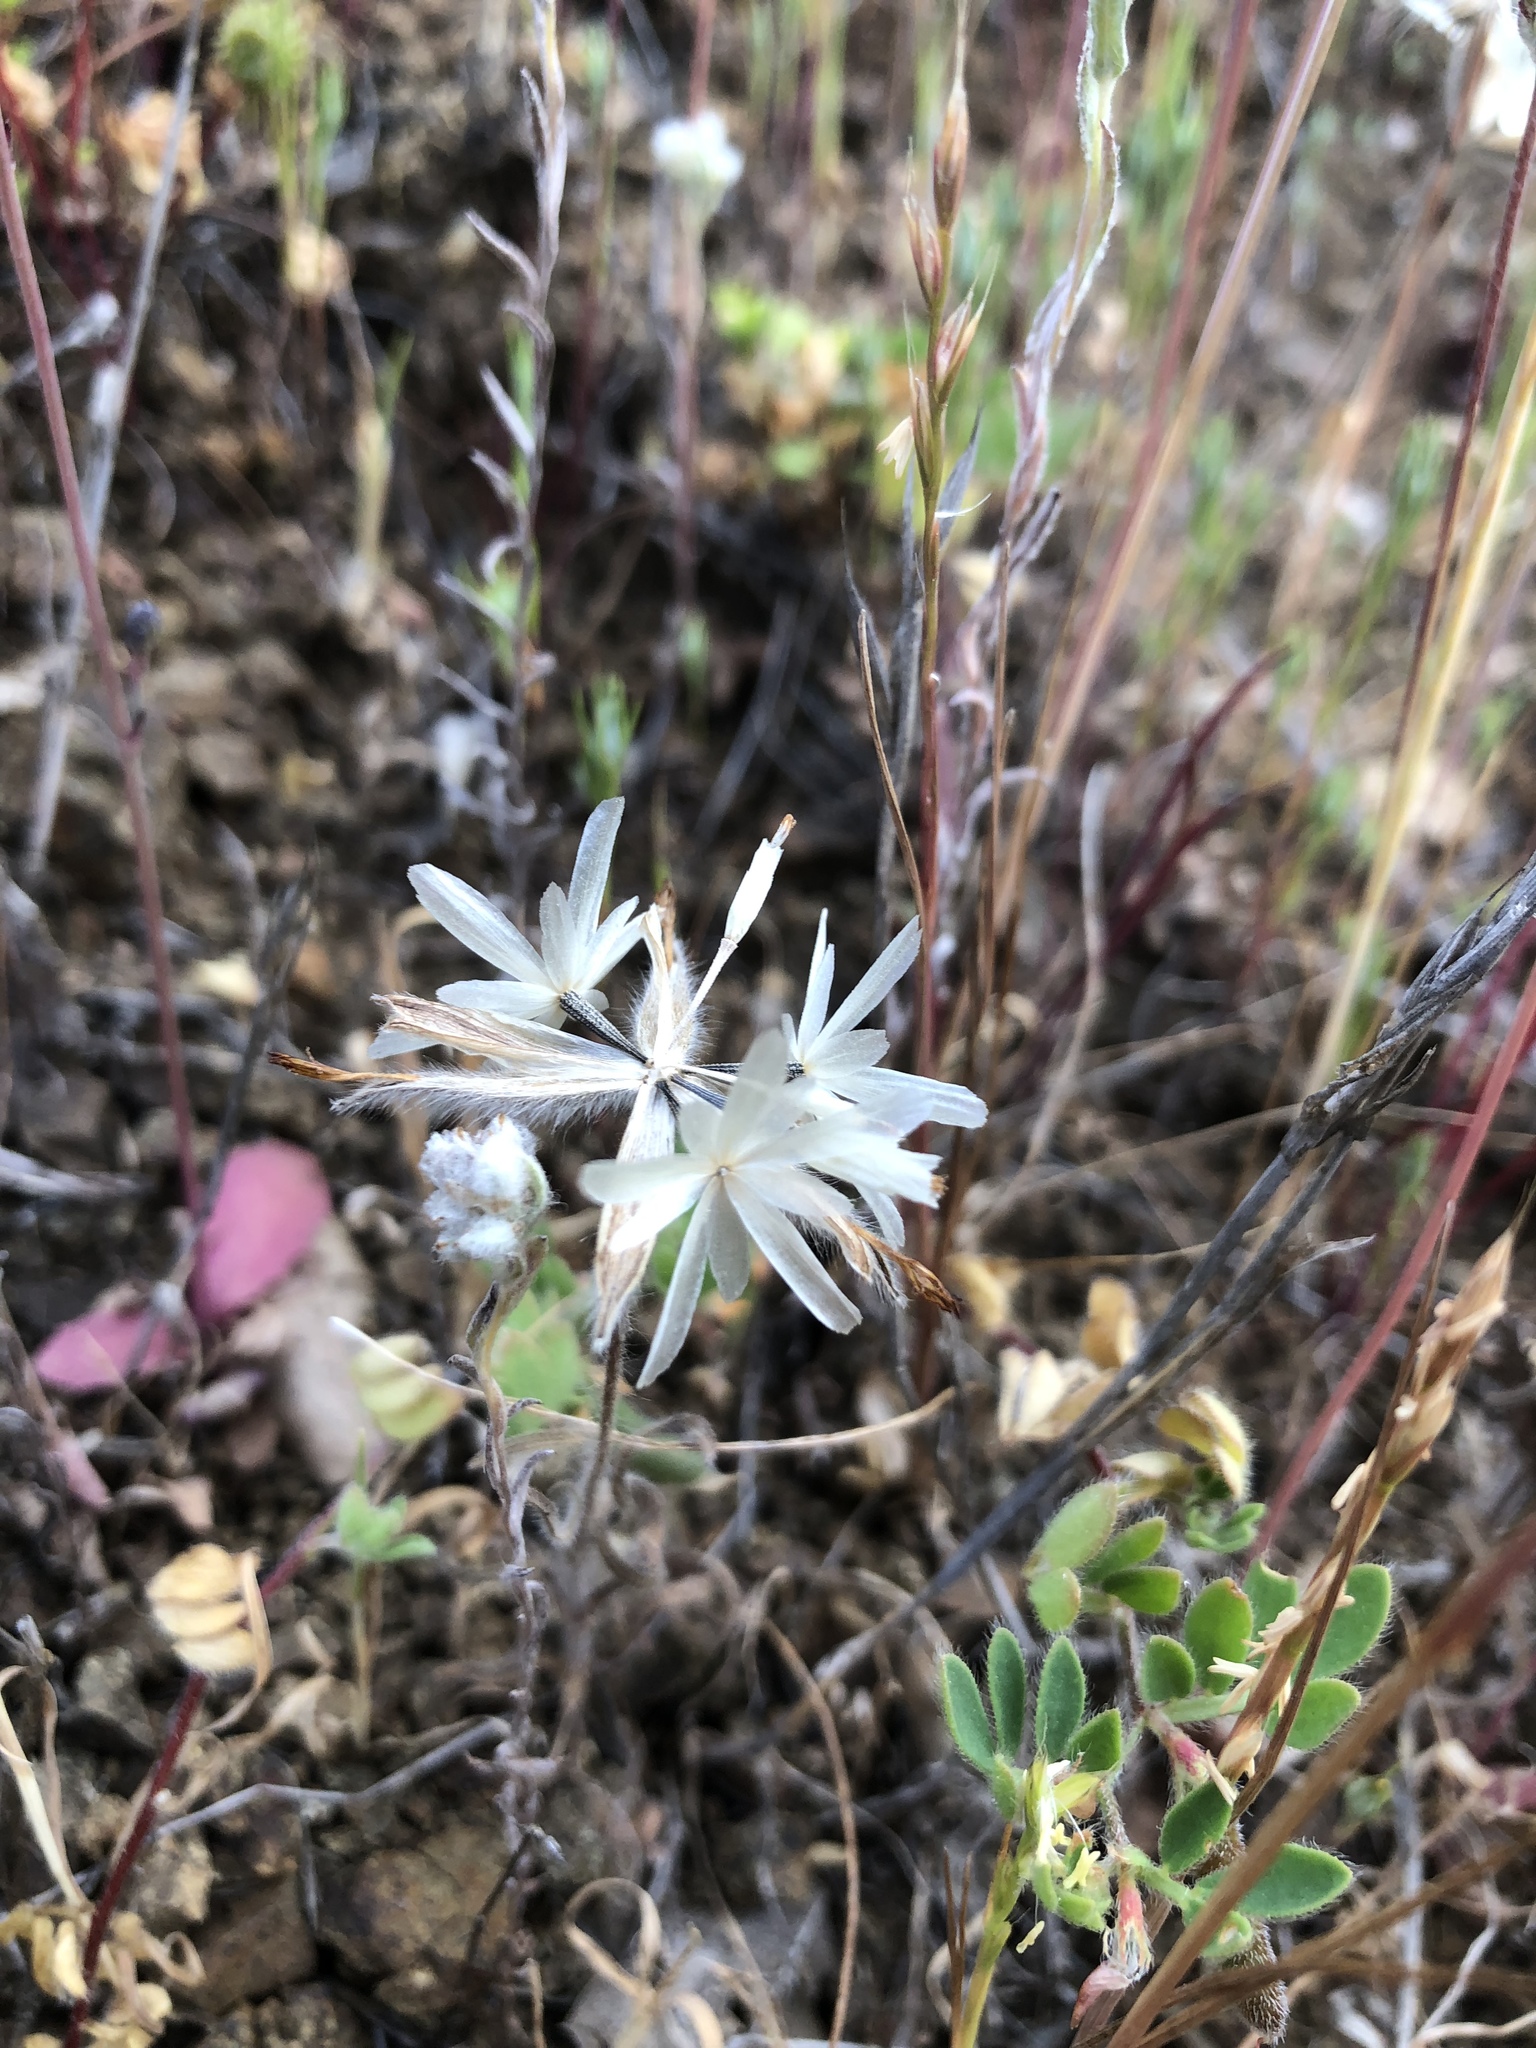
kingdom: Plantae
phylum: Tracheophyta
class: Magnoliopsida
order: Asterales
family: Asteraceae
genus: Achyrachaena
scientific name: Achyrachaena mollis
